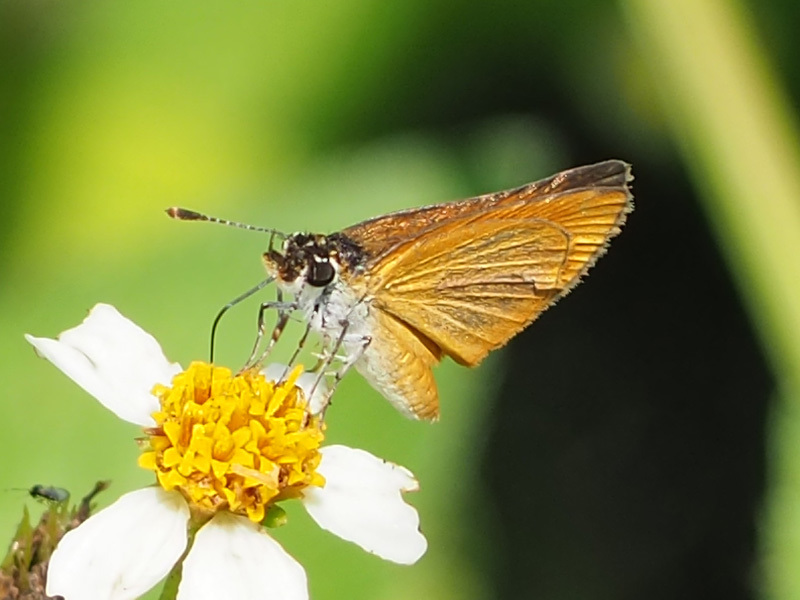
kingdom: Animalia
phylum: Arthropoda
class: Insecta
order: Lepidoptera
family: Hesperiidae
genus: Ancyloxypha
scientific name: Ancyloxypha numitor
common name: Least skipper
